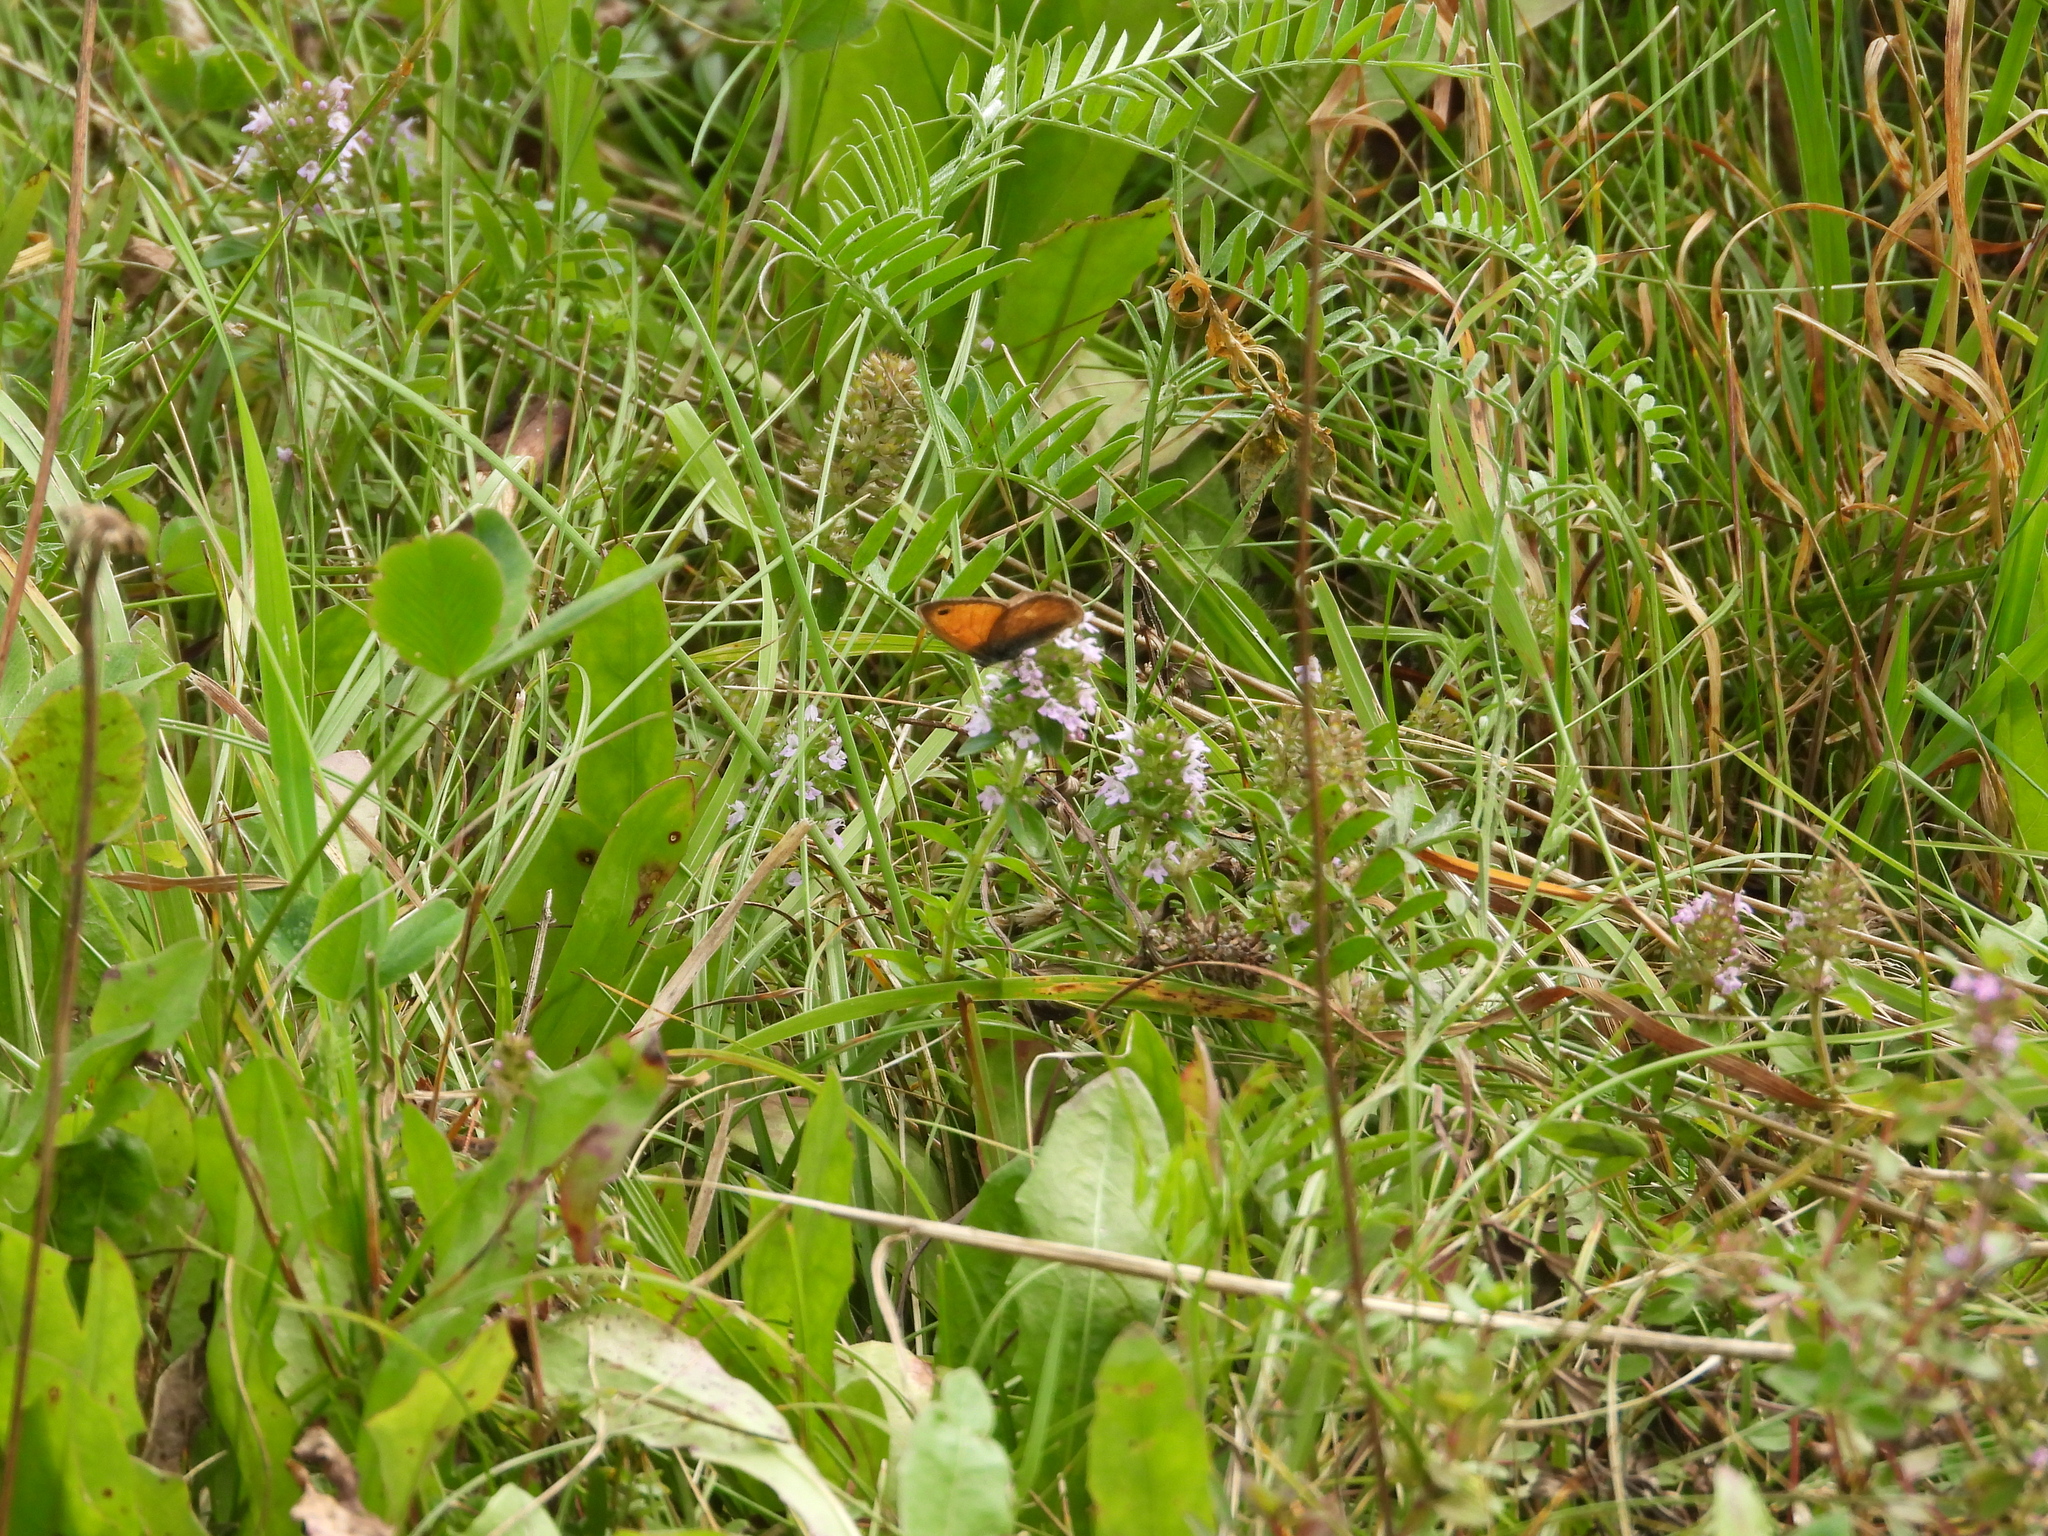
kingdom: Animalia
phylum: Arthropoda
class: Insecta
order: Lepidoptera
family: Nymphalidae
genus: Coenonympha
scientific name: Coenonympha pamphilus
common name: Small heath
